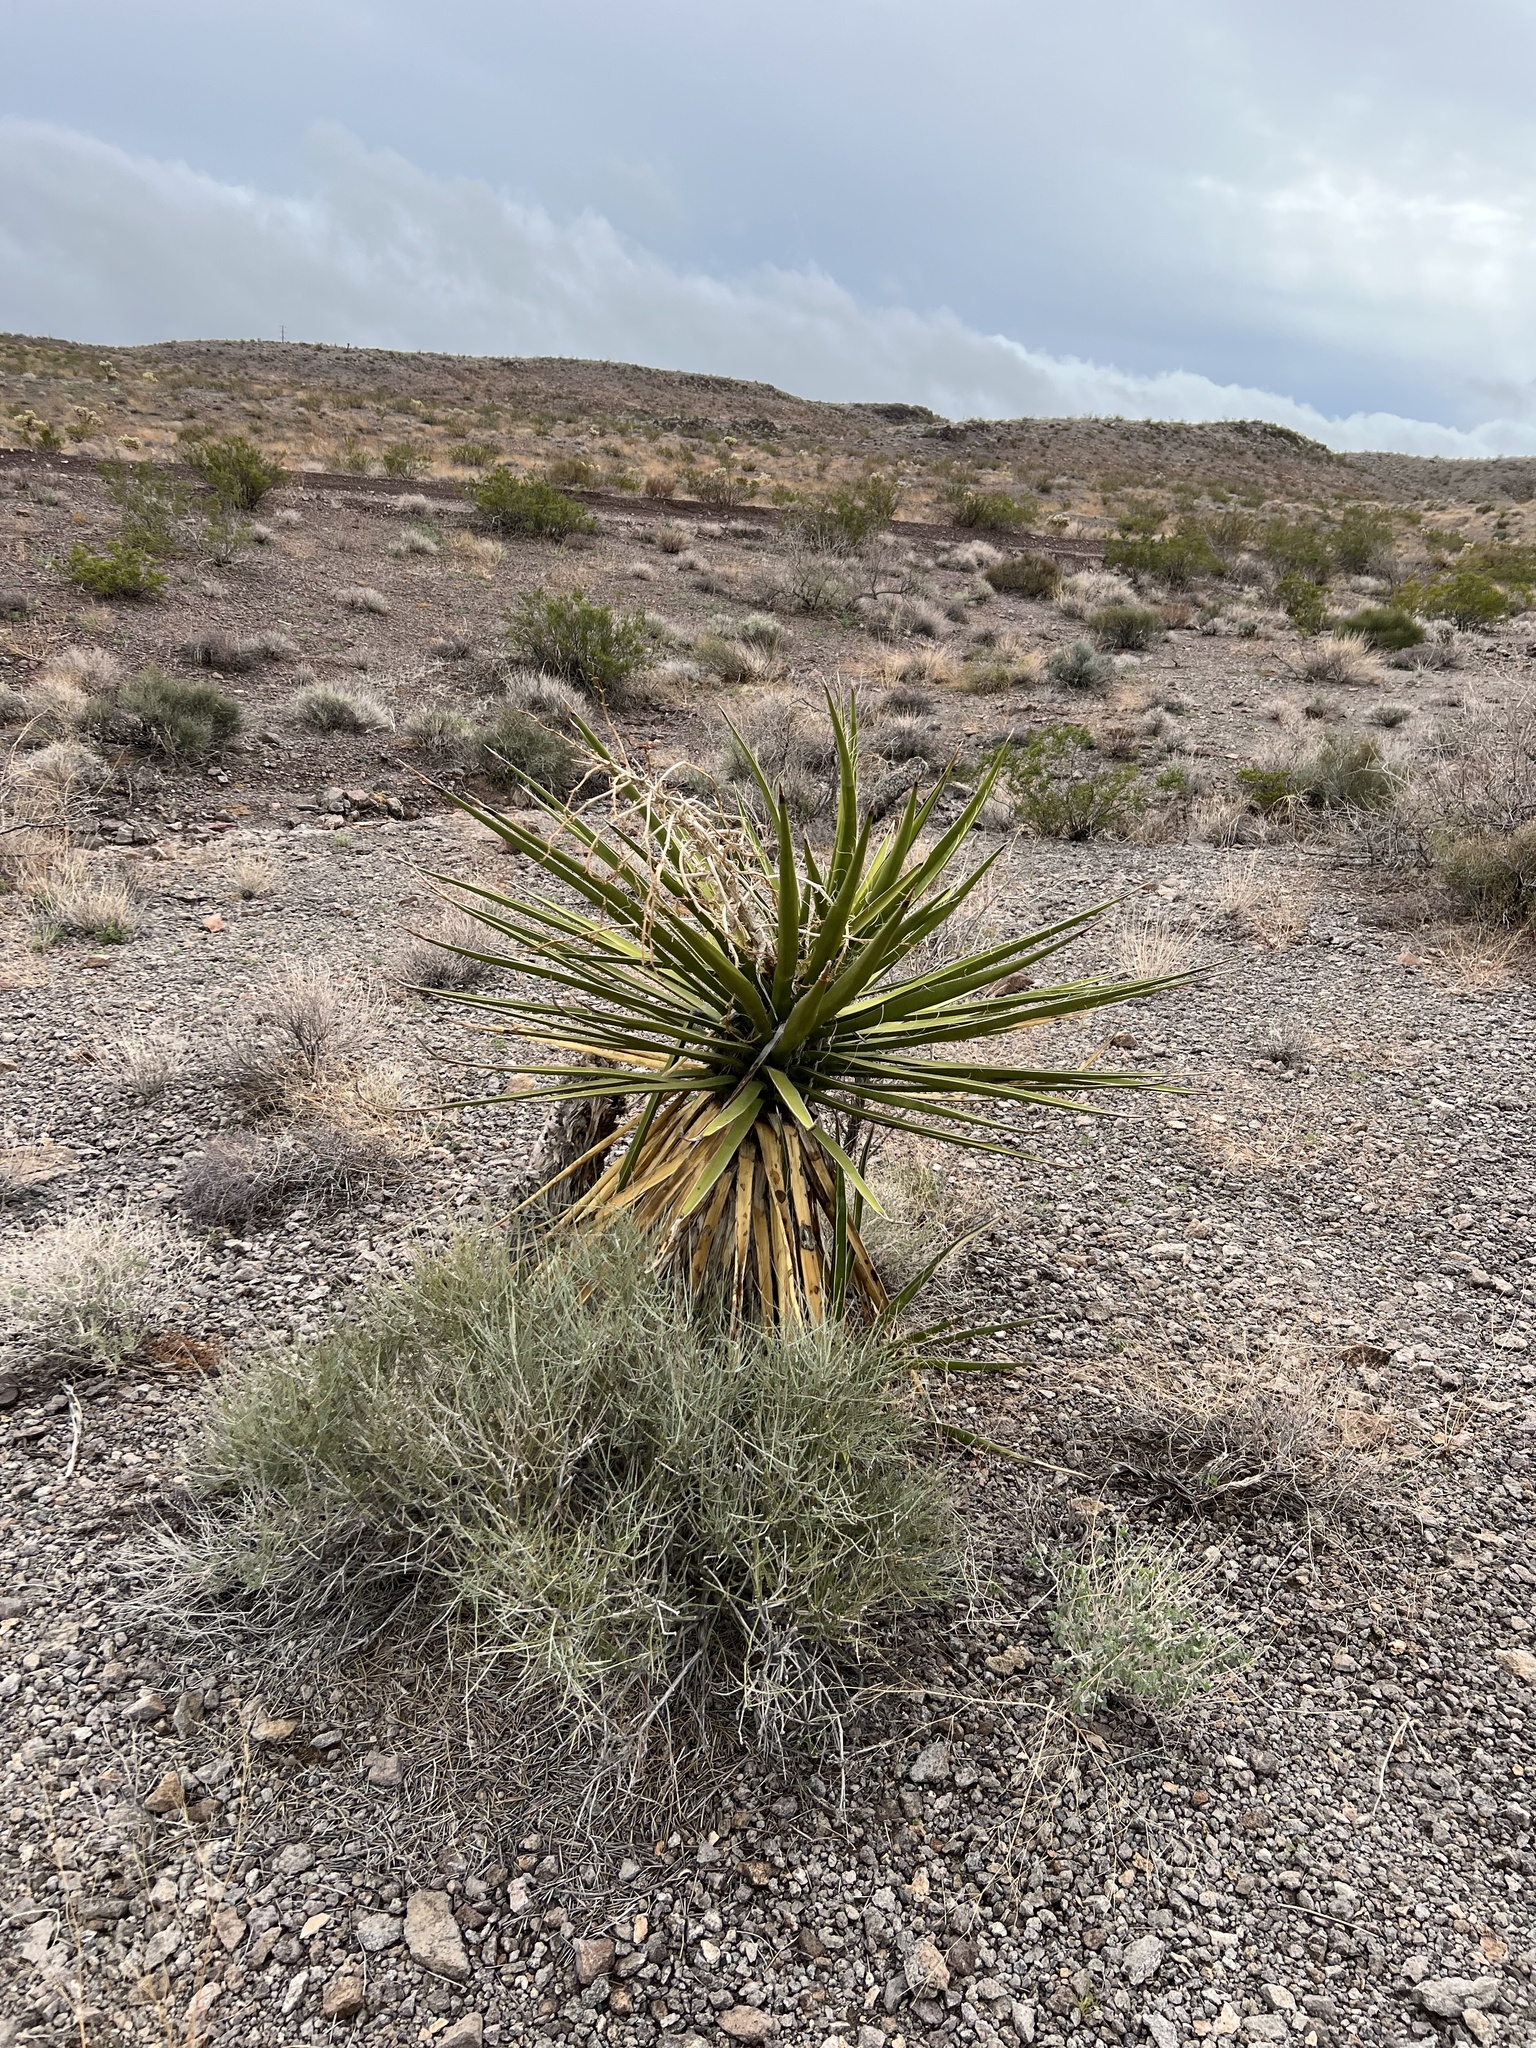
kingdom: Plantae
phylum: Tracheophyta
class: Liliopsida
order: Asparagales
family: Asparagaceae
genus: Yucca
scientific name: Yucca schidigera
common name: Mojave yucca
